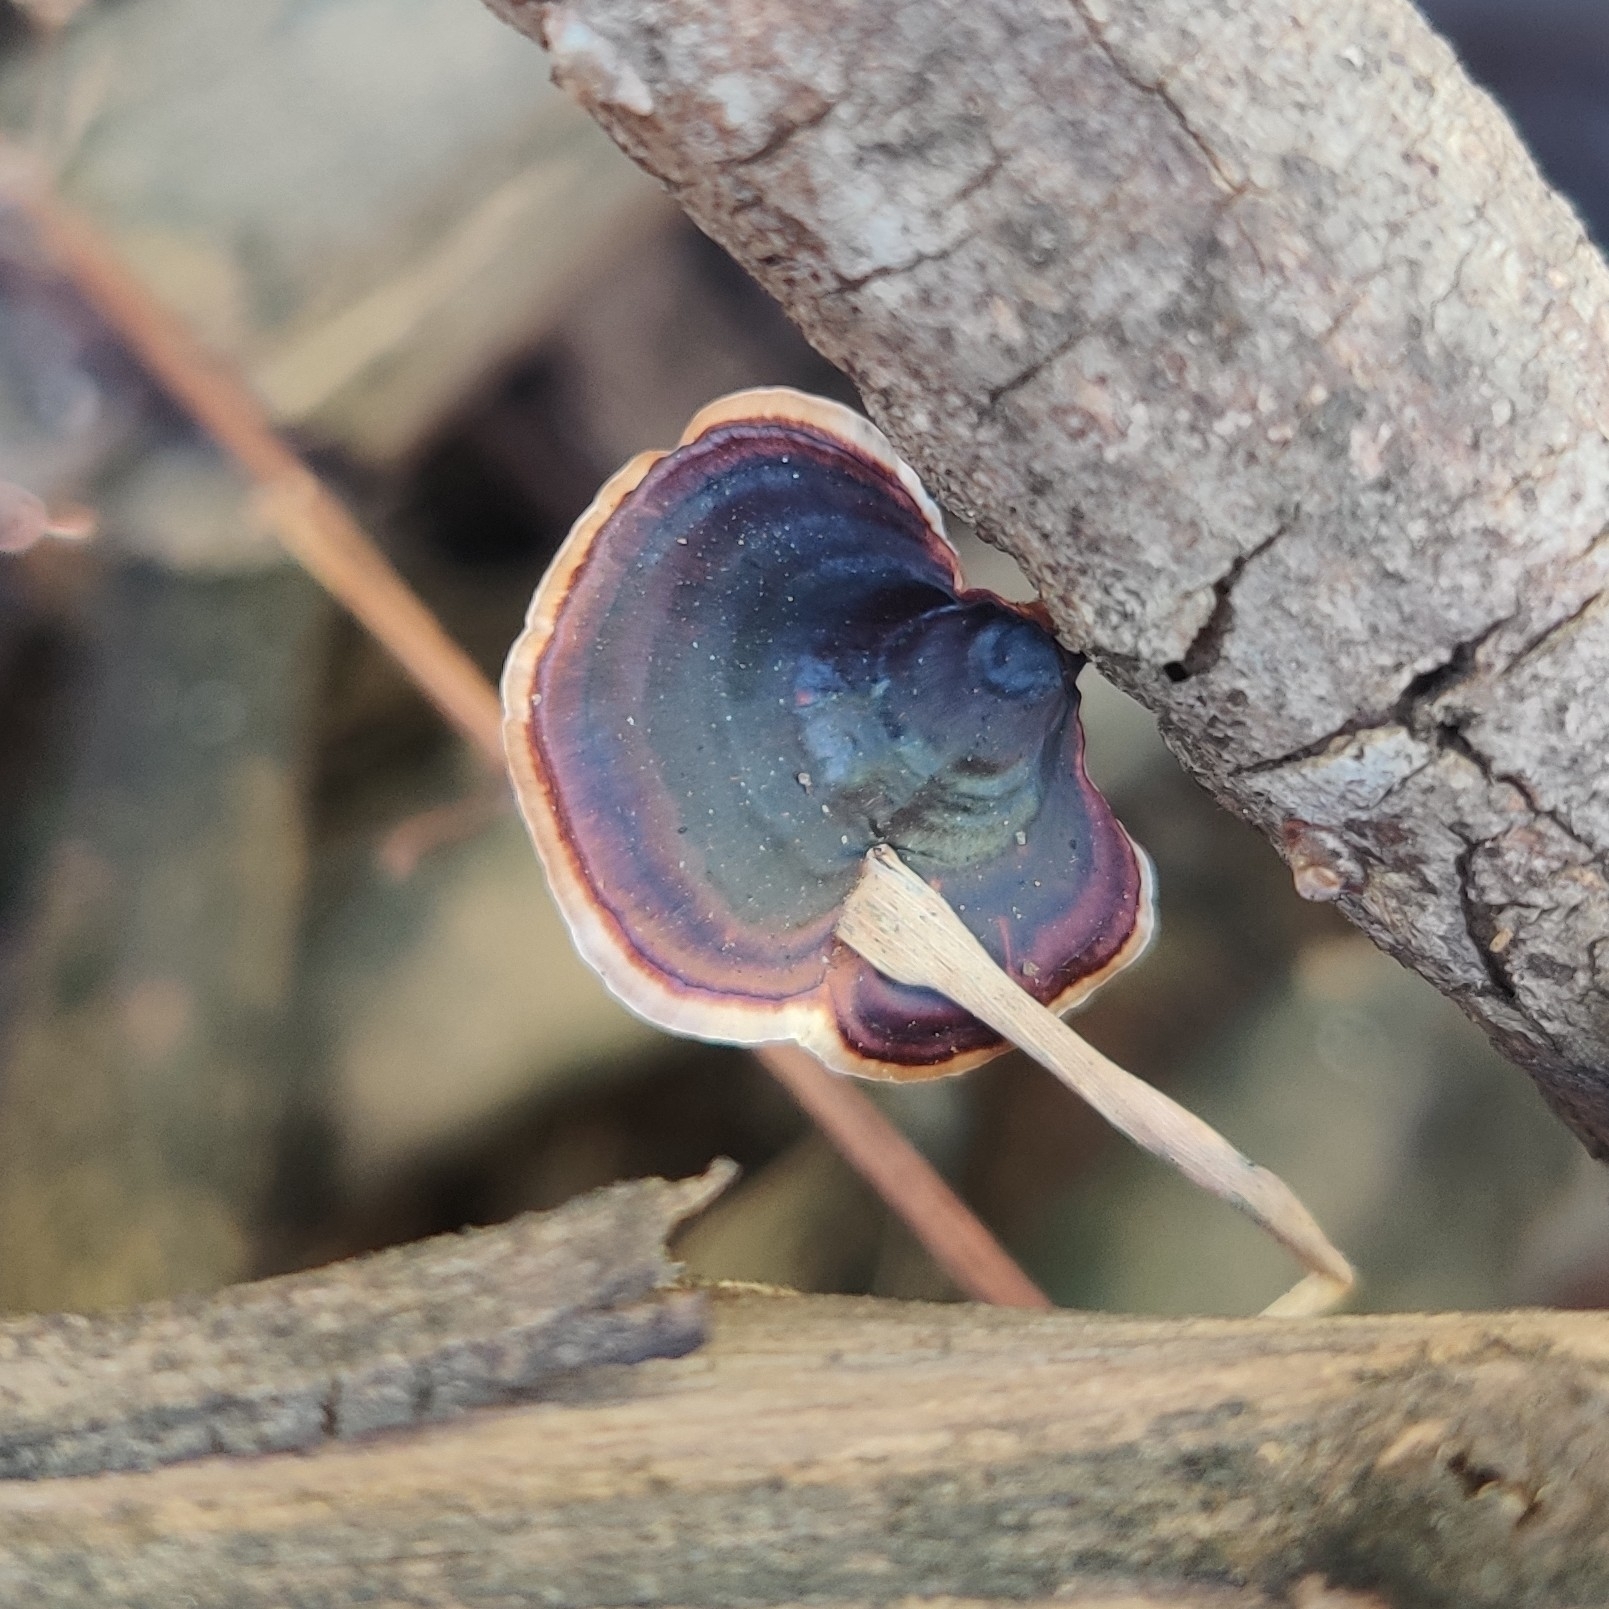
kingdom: Fungi
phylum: Basidiomycota
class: Agaricomycetes
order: Polyporales
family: Polyporaceae
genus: Microporus
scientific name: Microporus xanthopus
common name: Yellow-stemmed micropore
